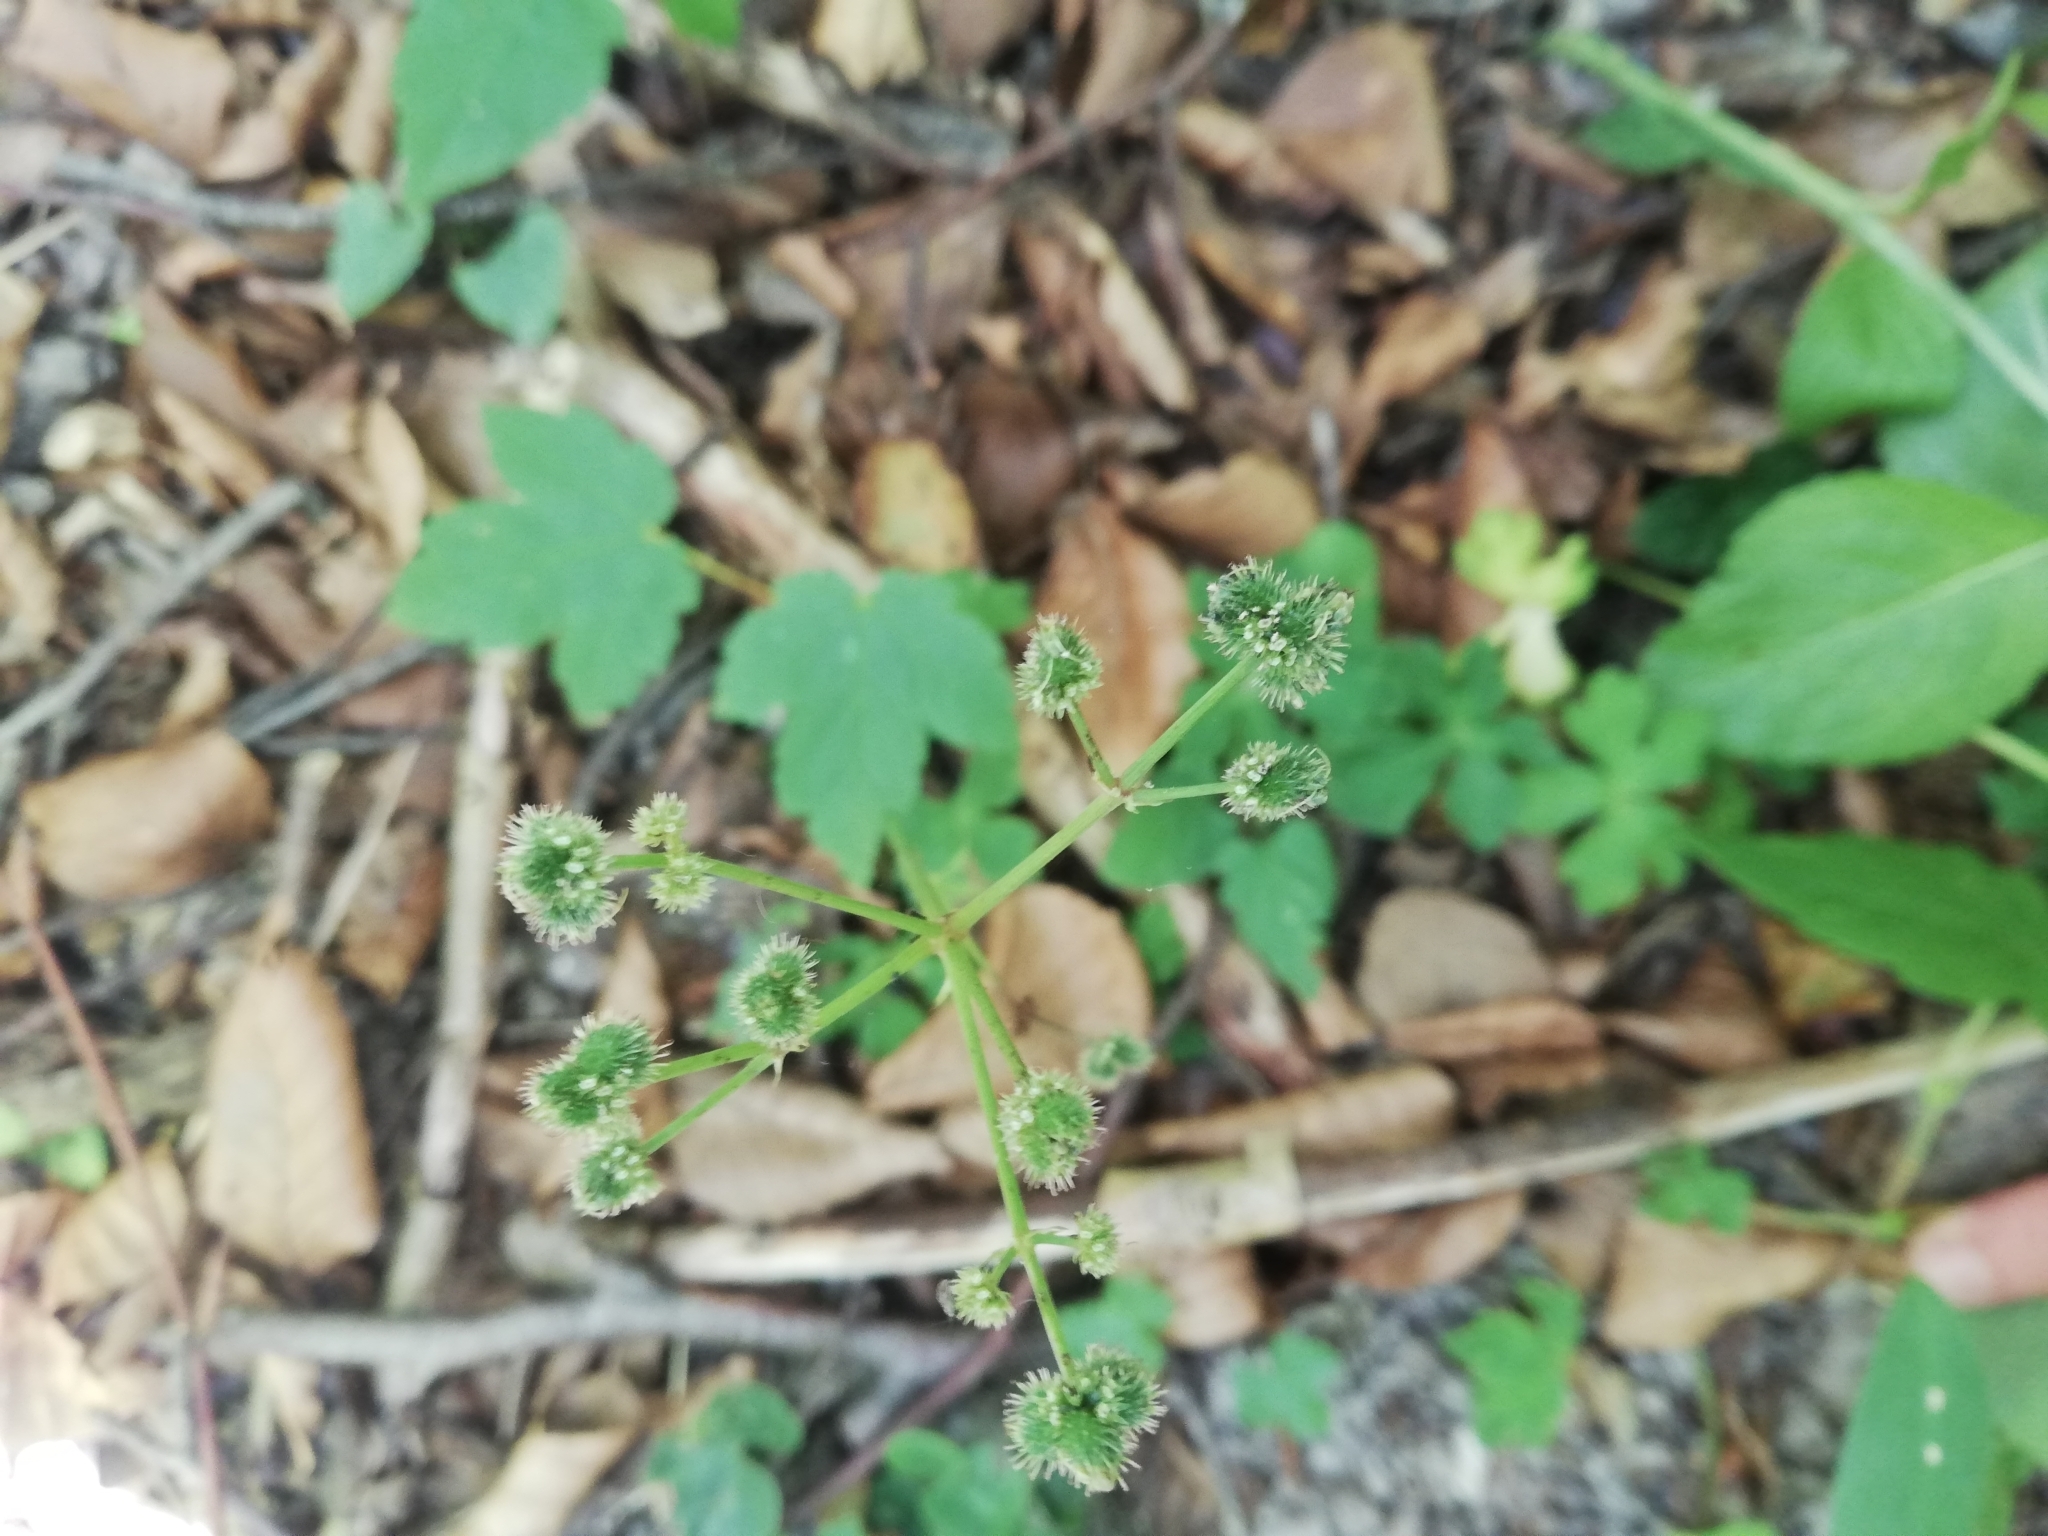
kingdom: Plantae
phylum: Tracheophyta
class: Magnoliopsida
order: Apiales
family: Apiaceae
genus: Sanicula
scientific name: Sanicula europaea
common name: Sanicle
